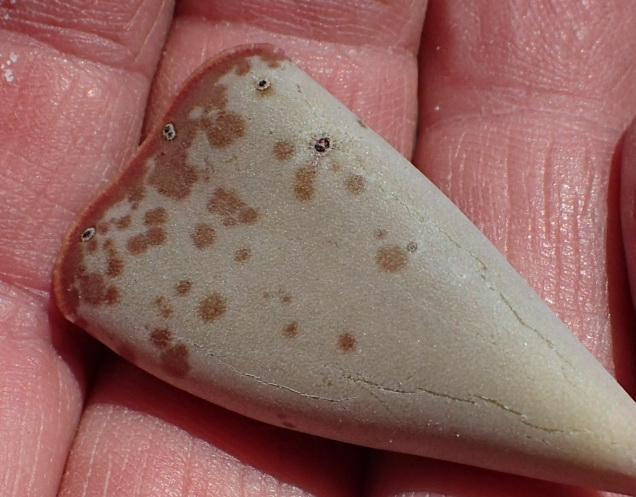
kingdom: Plantae
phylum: Tracheophyta
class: Magnoliopsida
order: Saxifragales
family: Crassulaceae
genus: Adromischus
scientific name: Adromischus triflorus
